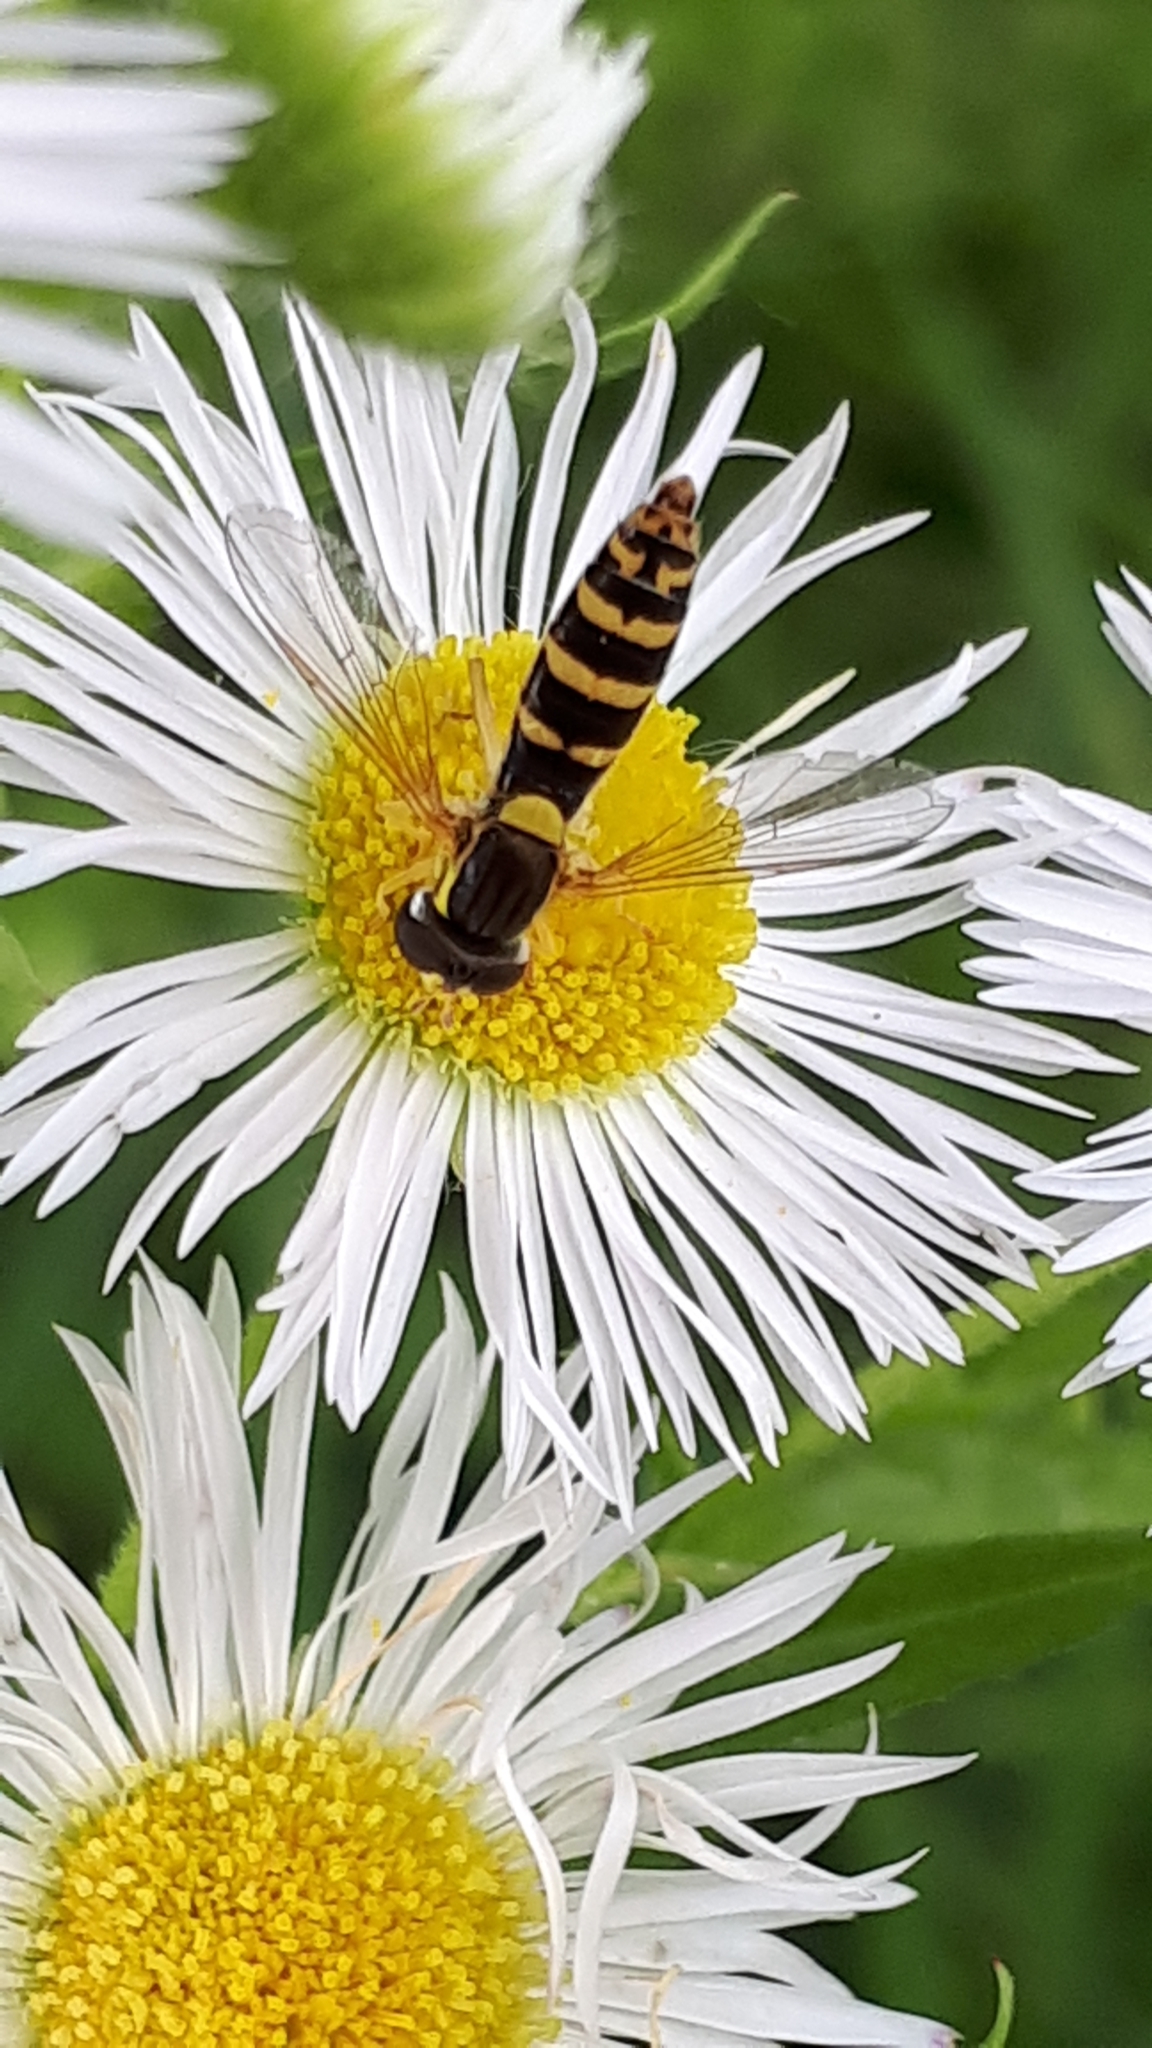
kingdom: Animalia
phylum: Arthropoda
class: Insecta
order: Diptera
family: Syrphidae
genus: Sphaerophoria
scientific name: Sphaerophoria scripta
